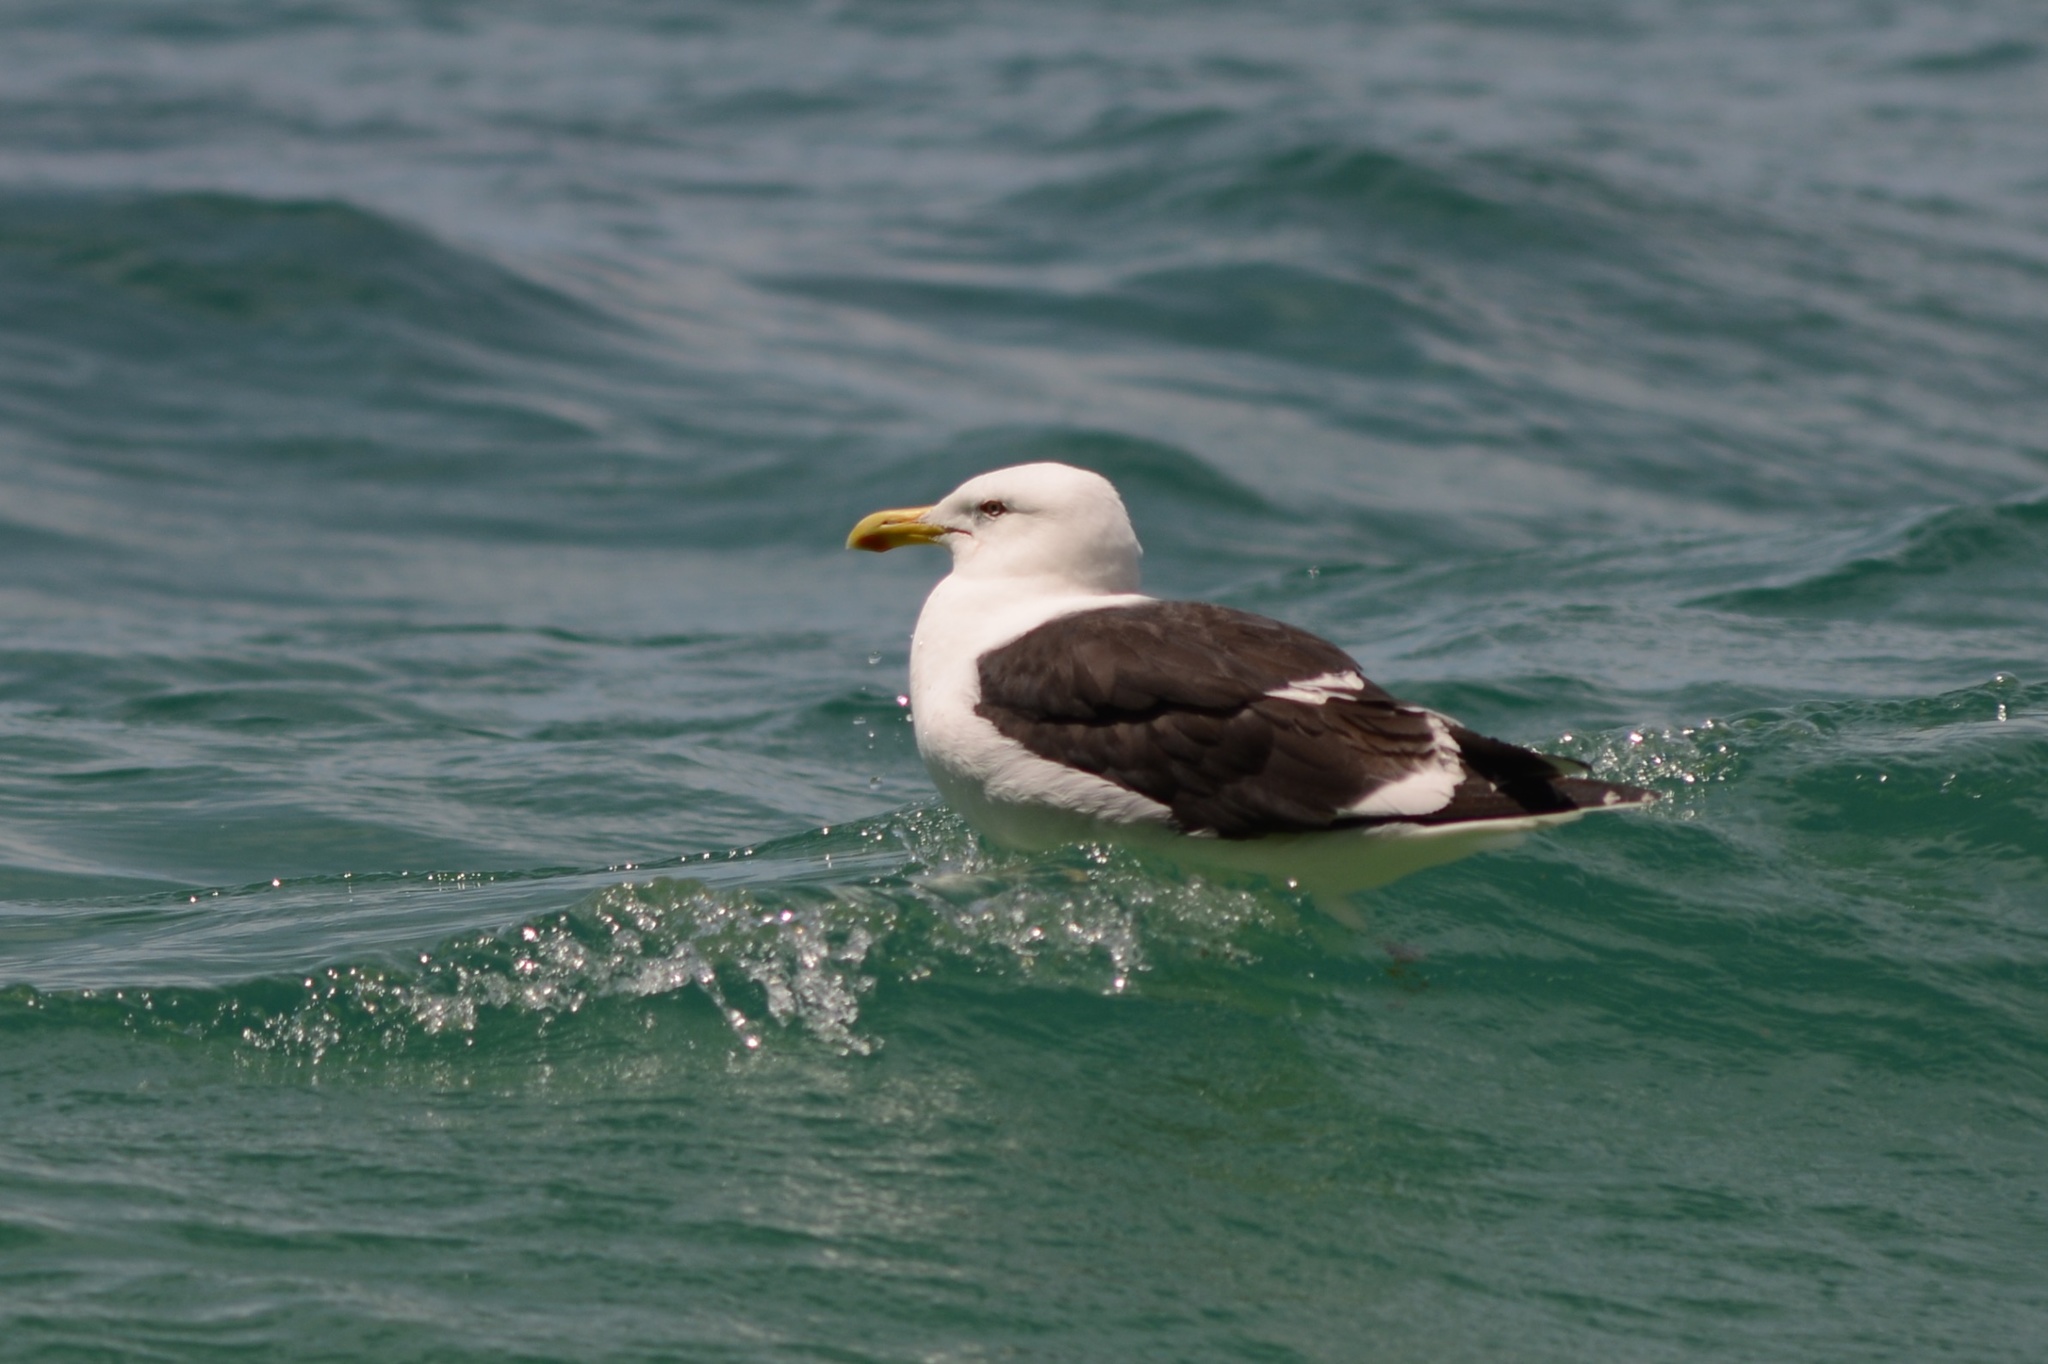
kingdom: Animalia
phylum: Chordata
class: Aves
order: Charadriiformes
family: Laridae
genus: Larus
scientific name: Larus dominicanus
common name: Kelp gull
